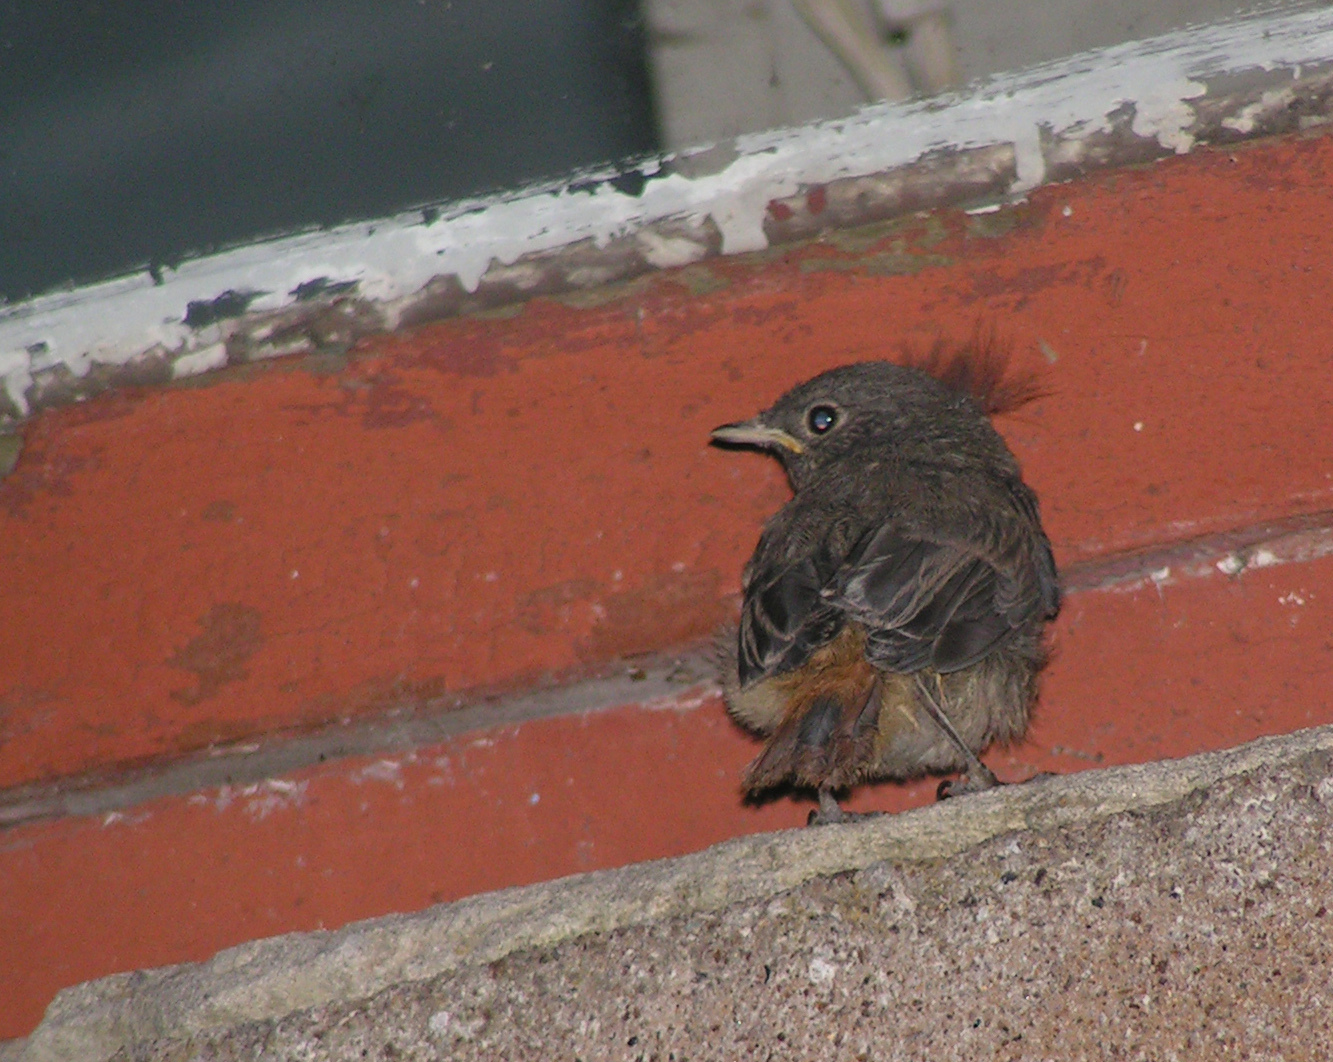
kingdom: Animalia
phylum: Chordata
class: Aves
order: Passeriformes
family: Muscicapidae
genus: Phoenicurus
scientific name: Phoenicurus ochruros
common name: Black redstart
